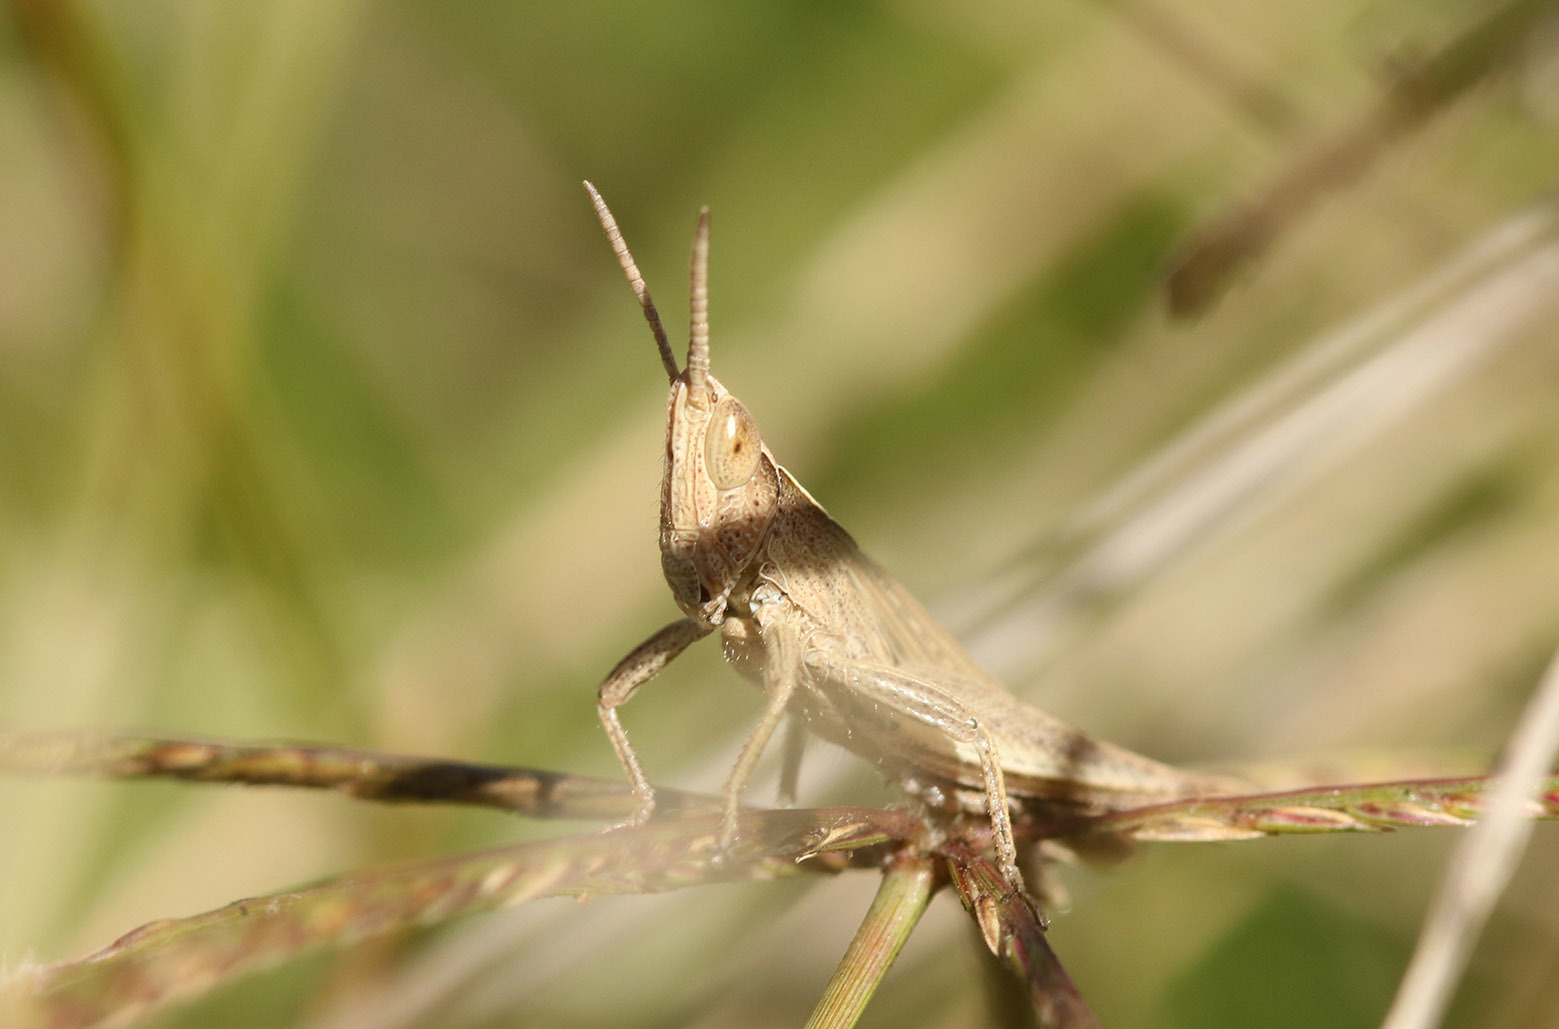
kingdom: Animalia
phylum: Arthropoda
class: Insecta
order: Orthoptera
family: Acrididae
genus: Laplatacris
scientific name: Laplatacris dispar
